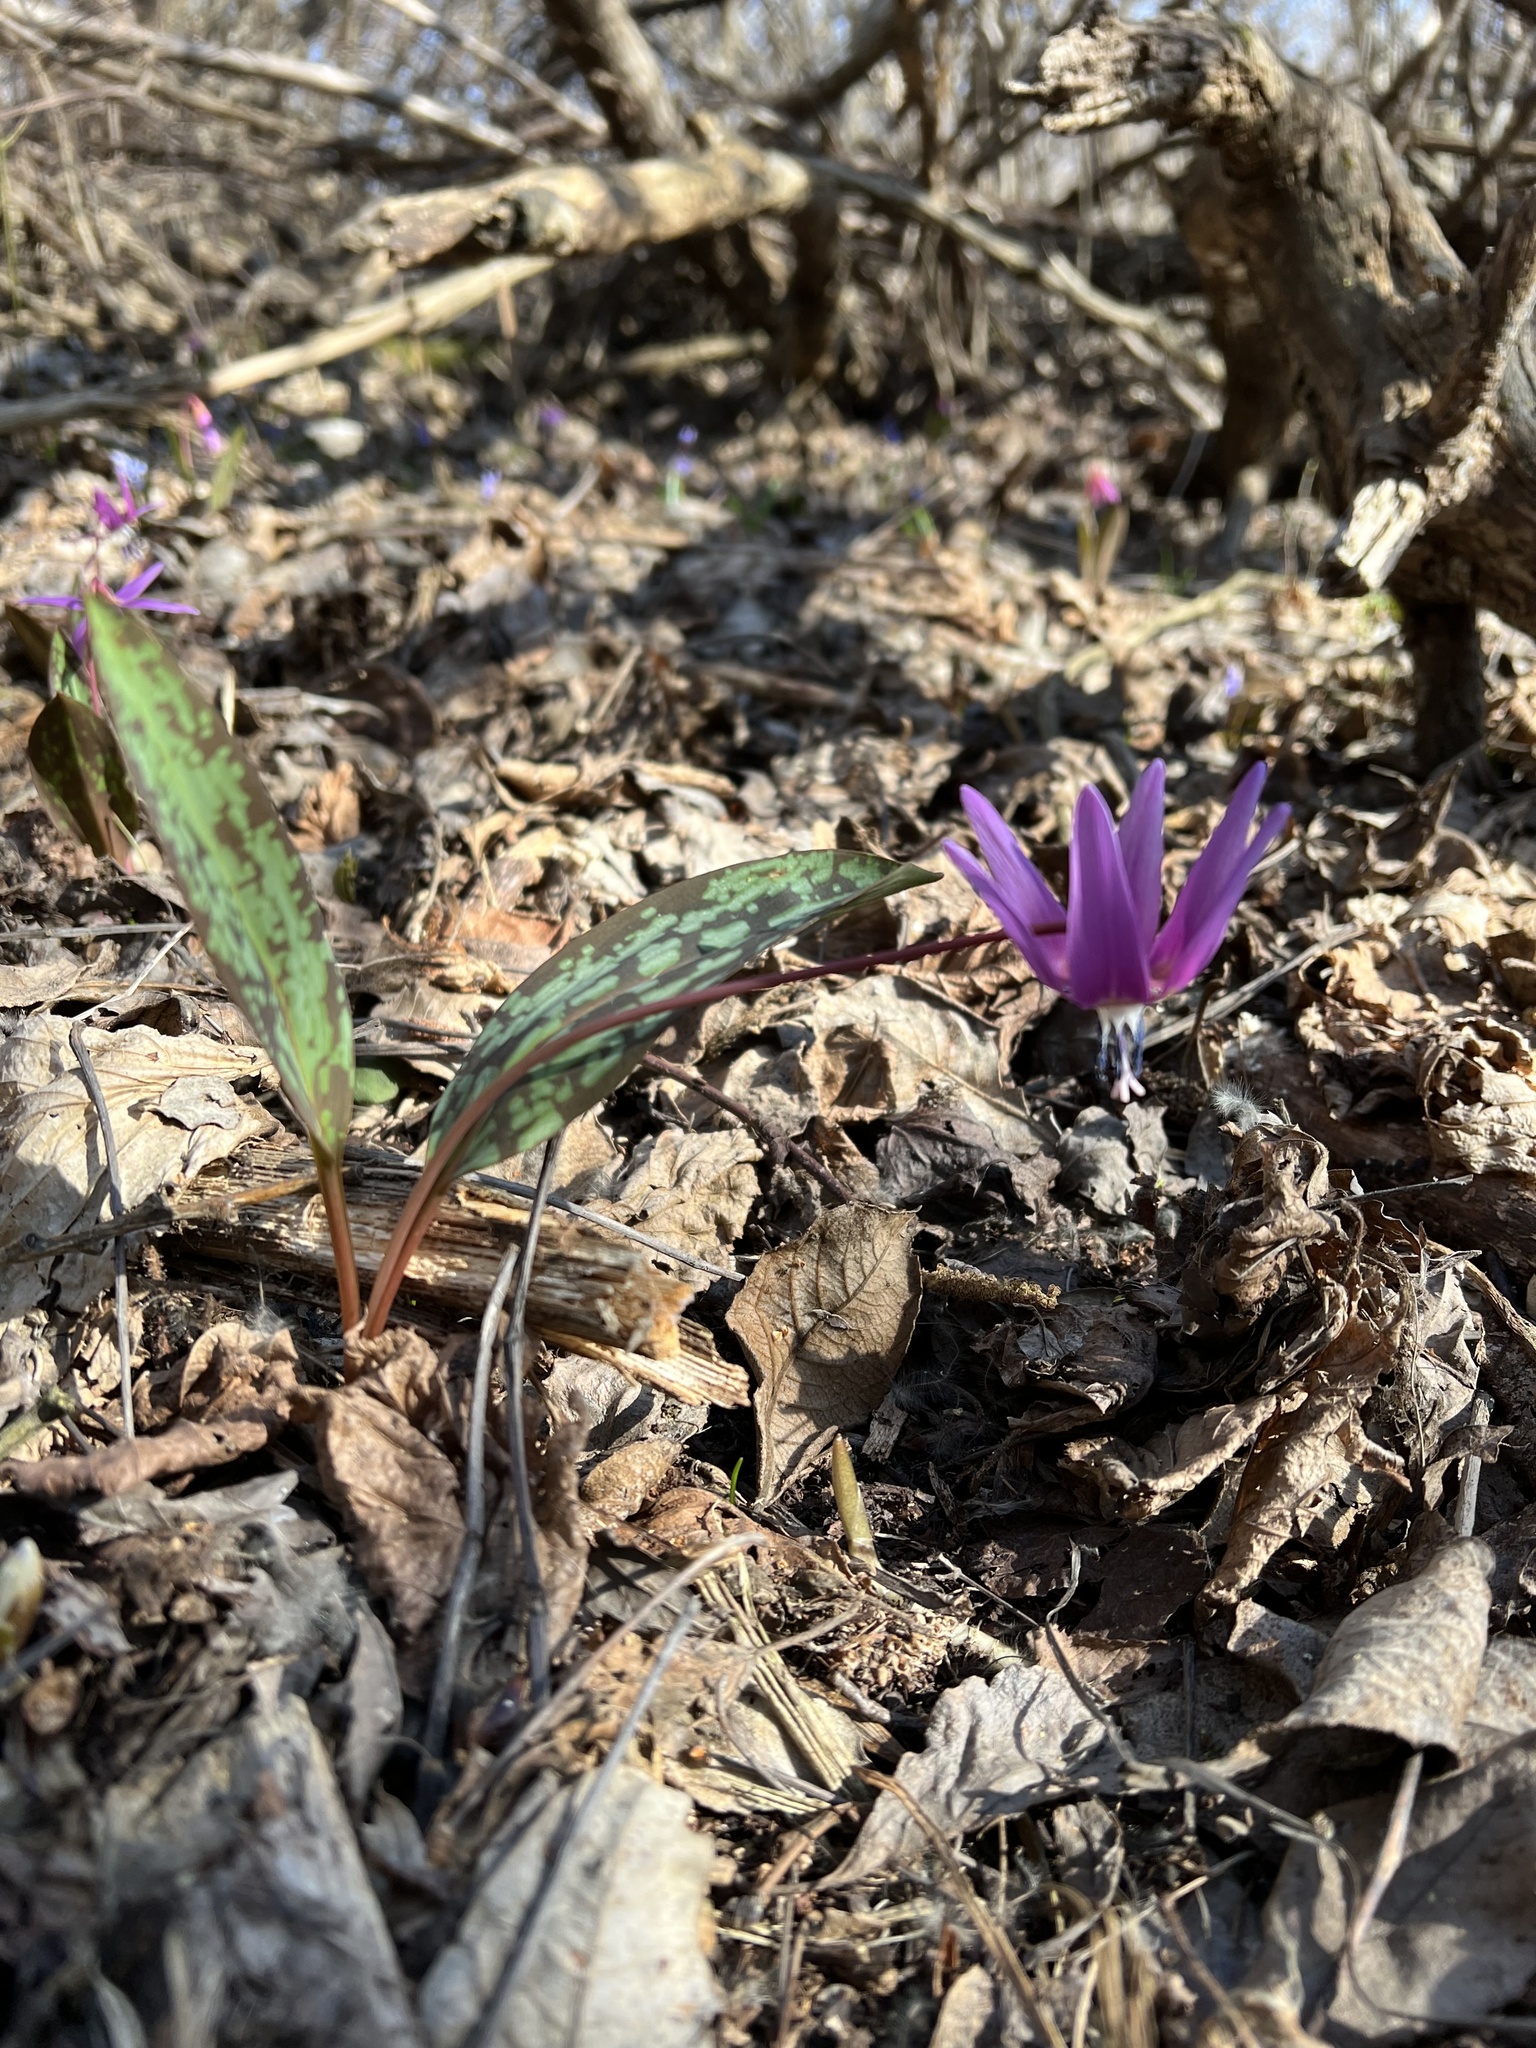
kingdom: Plantae
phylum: Tracheophyta
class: Liliopsida
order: Liliales
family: Liliaceae
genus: Erythronium
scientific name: Erythronium dens-canis
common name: Dog's-tooth-violet
